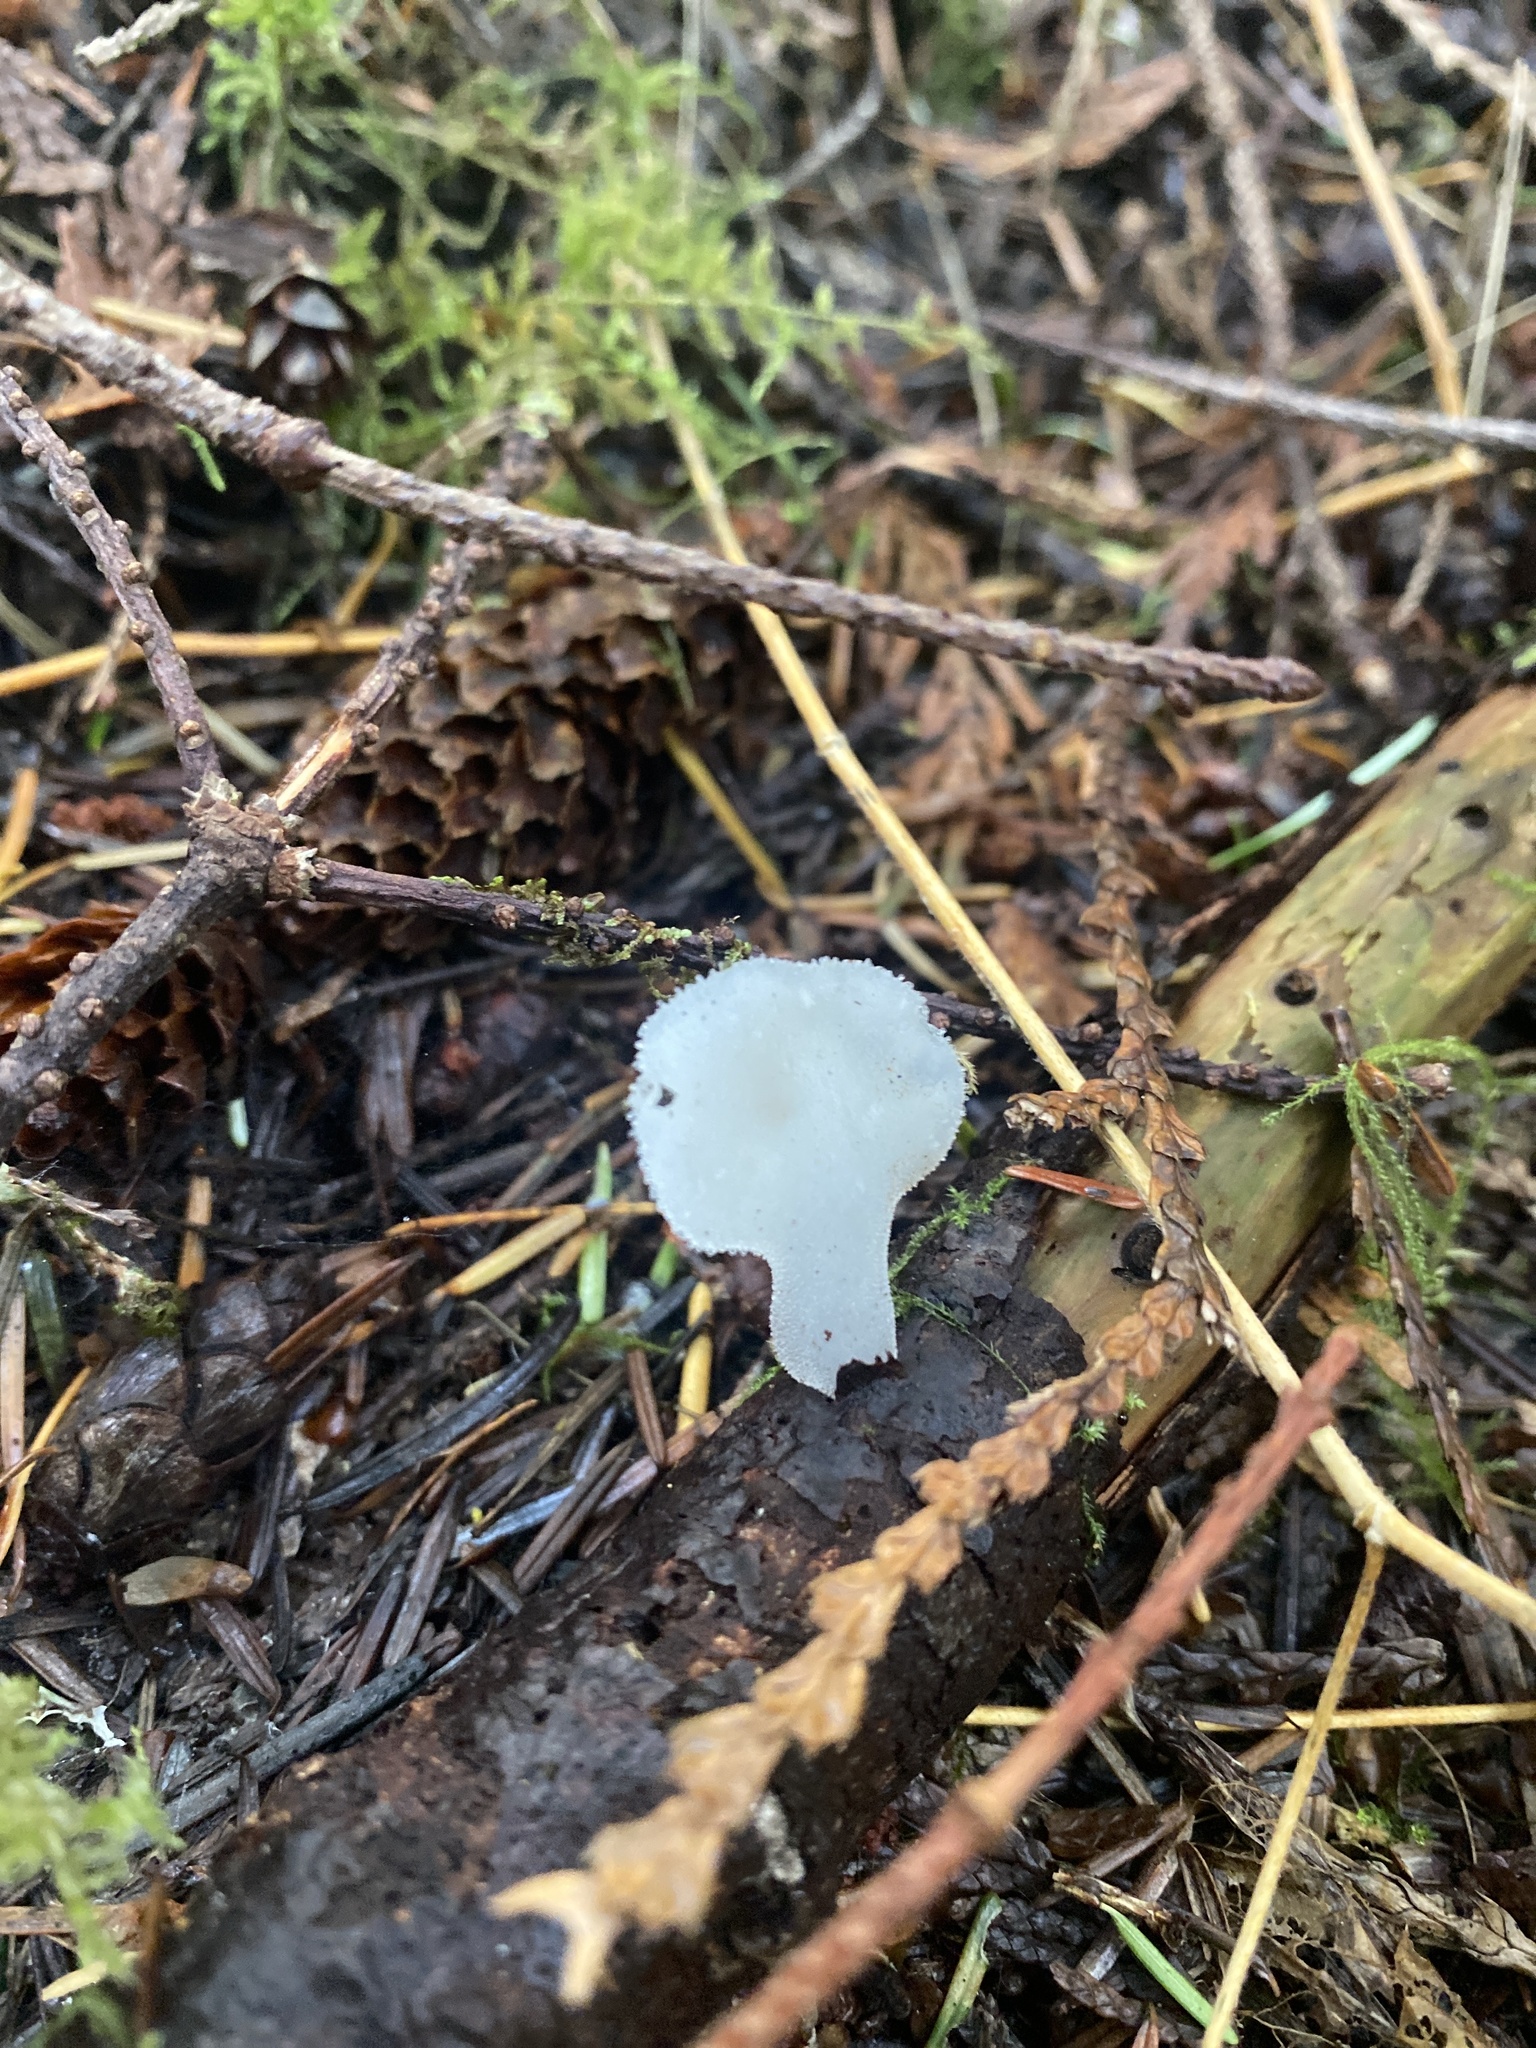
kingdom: Fungi
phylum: Basidiomycota
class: Agaricomycetes
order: Auriculariales
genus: Pseudohydnum
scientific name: Pseudohydnum gelatinosum
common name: Jelly tongue
